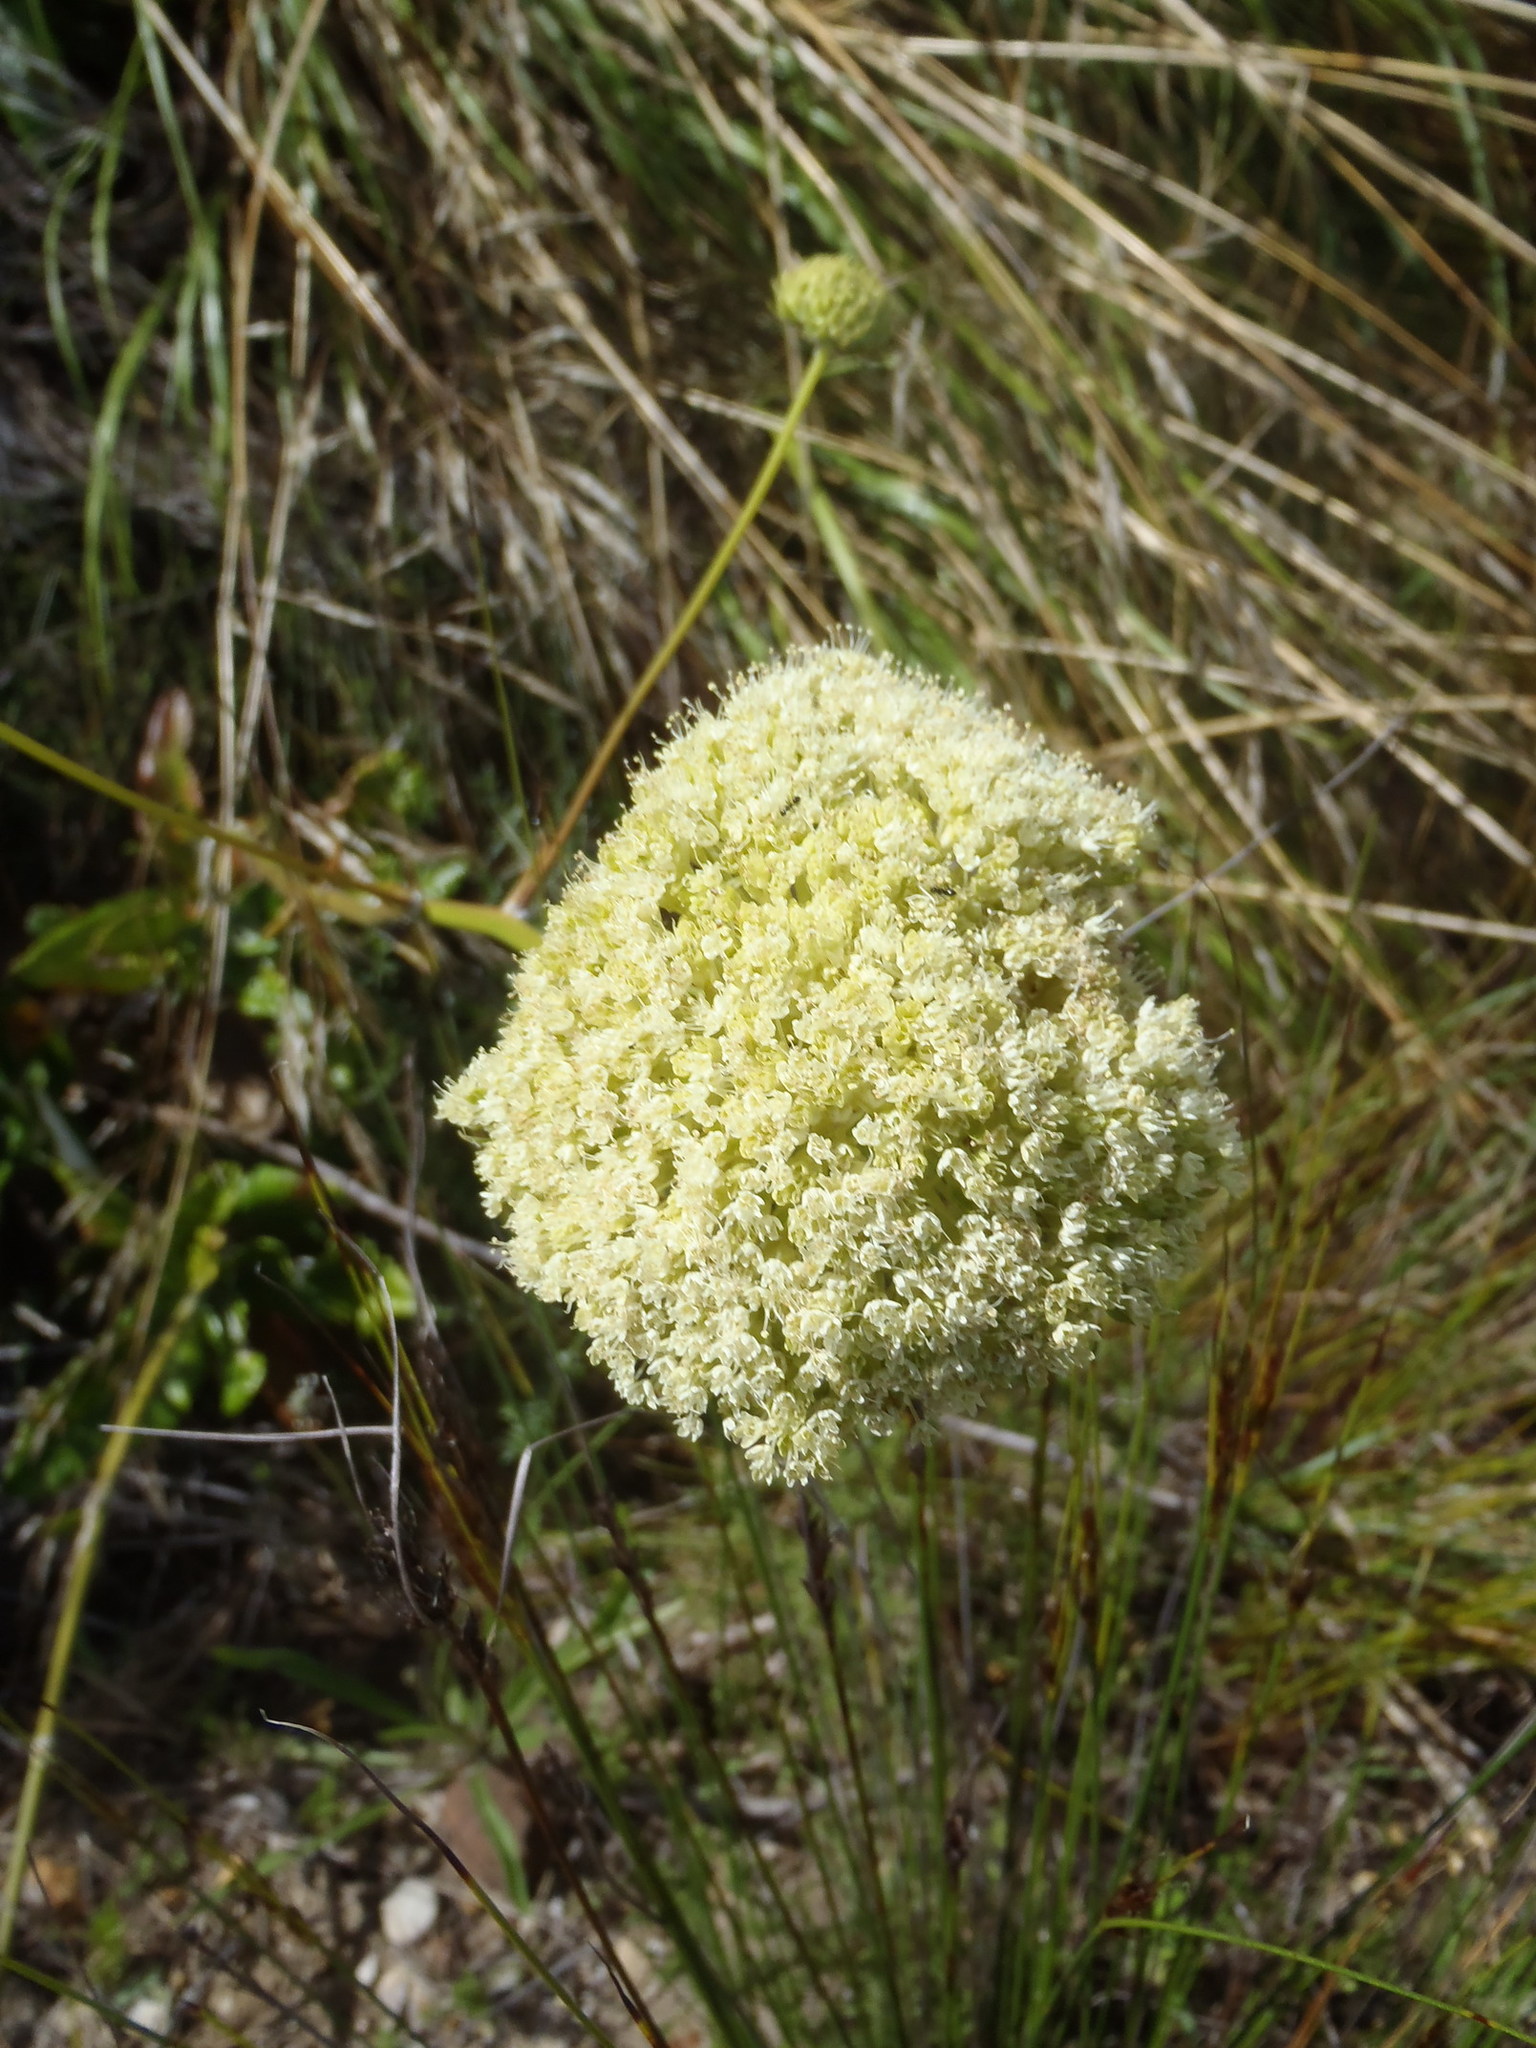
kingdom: Plantae
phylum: Tracheophyta
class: Magnoliopsida
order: Apiales
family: Apiaceae
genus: Hermas
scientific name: Hermas villosa
